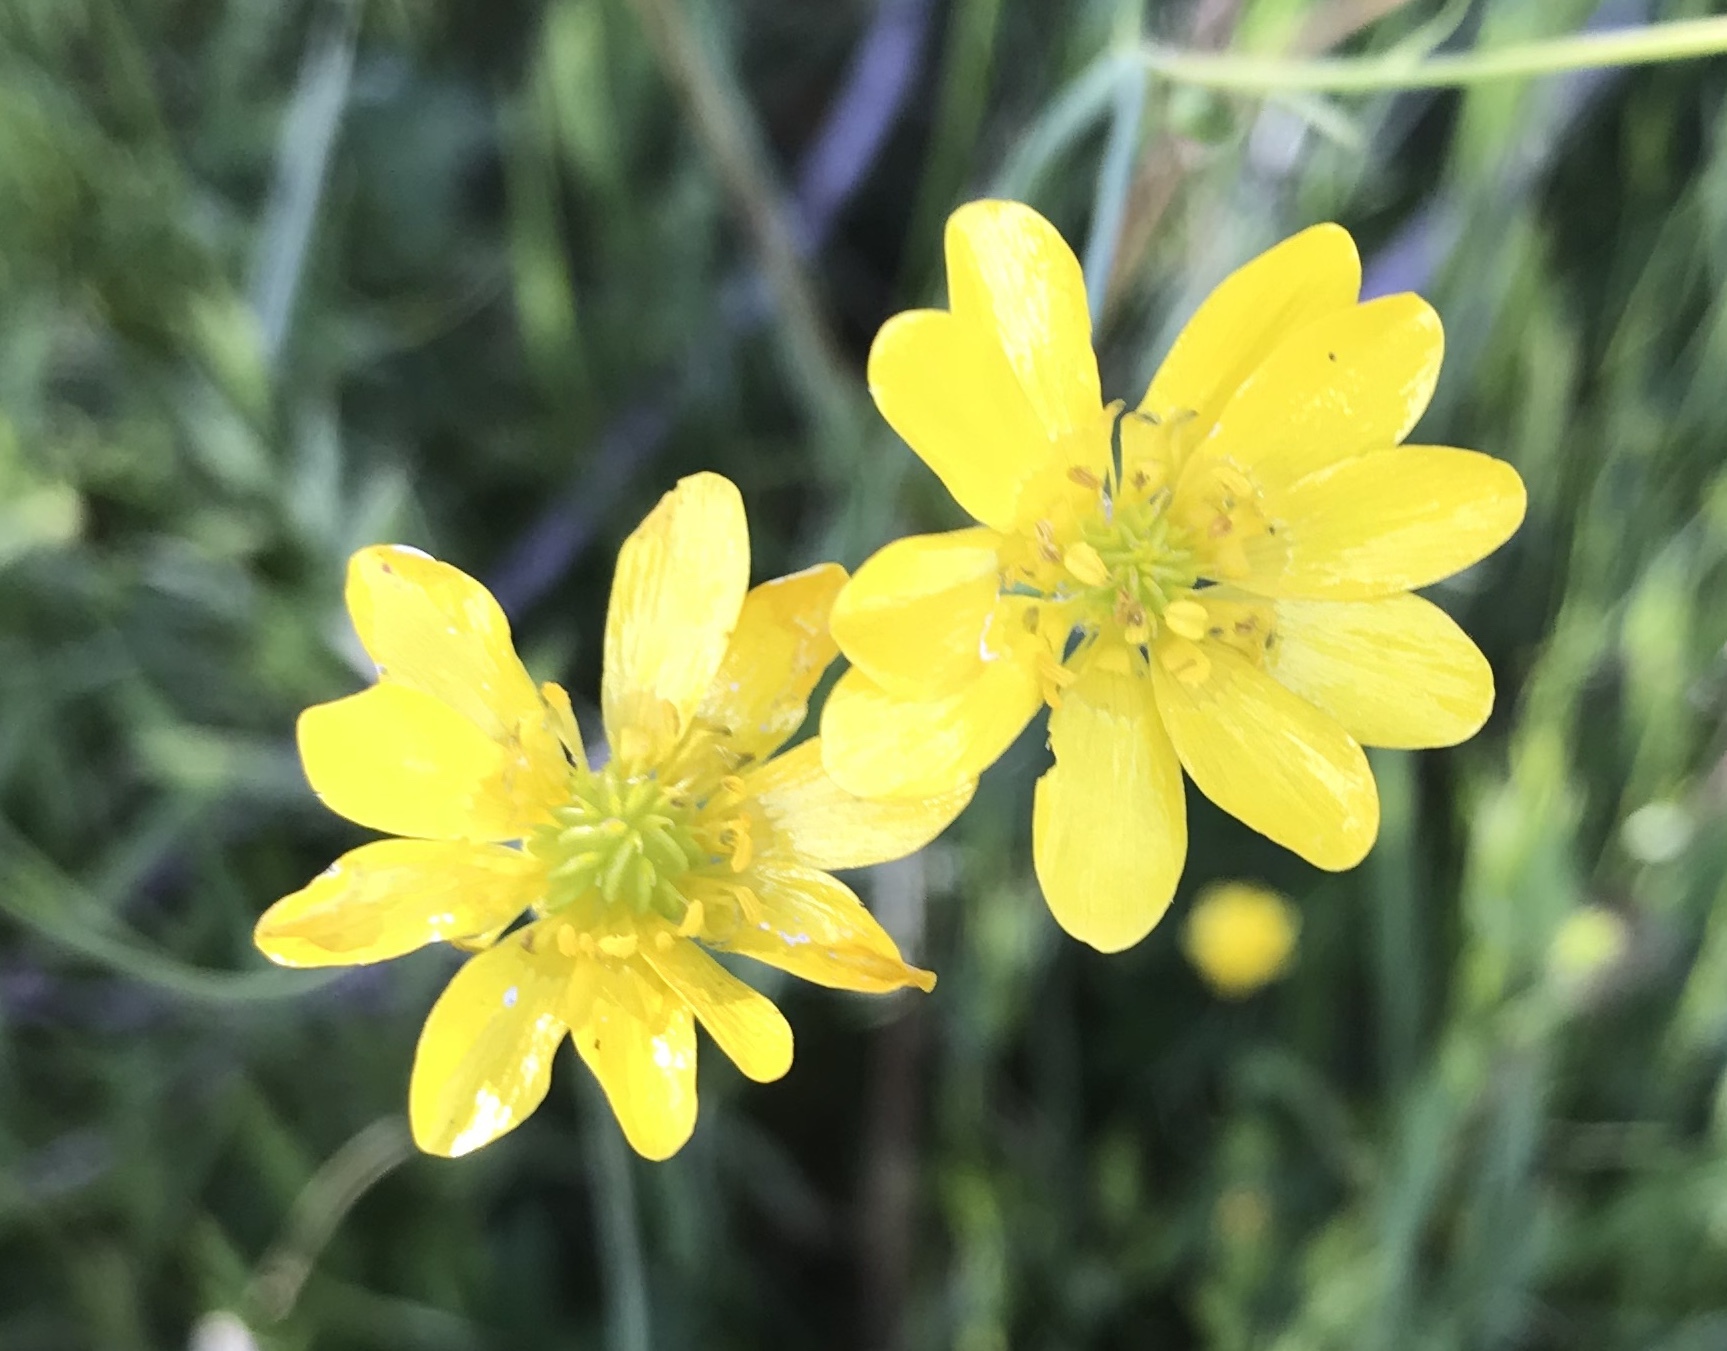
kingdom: Plantae
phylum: Tracheophyta
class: Magnoliopsida
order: Ranunculales
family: Ranunculaceae
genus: Ranunculus
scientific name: Ranunculus californicus
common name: California buttercup
